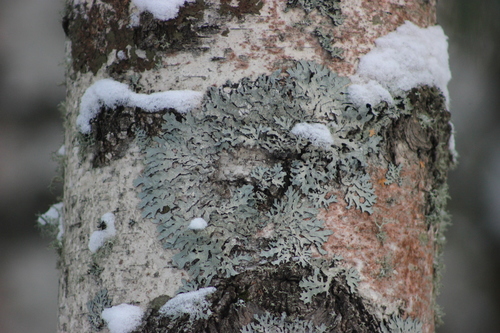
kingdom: Fungi
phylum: Ascomycota
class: Lecanoromycetes
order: Lecanorales
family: Parmeliaceae
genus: Parmelia
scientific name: Parmelia sulcata
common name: Netted shield lichen
